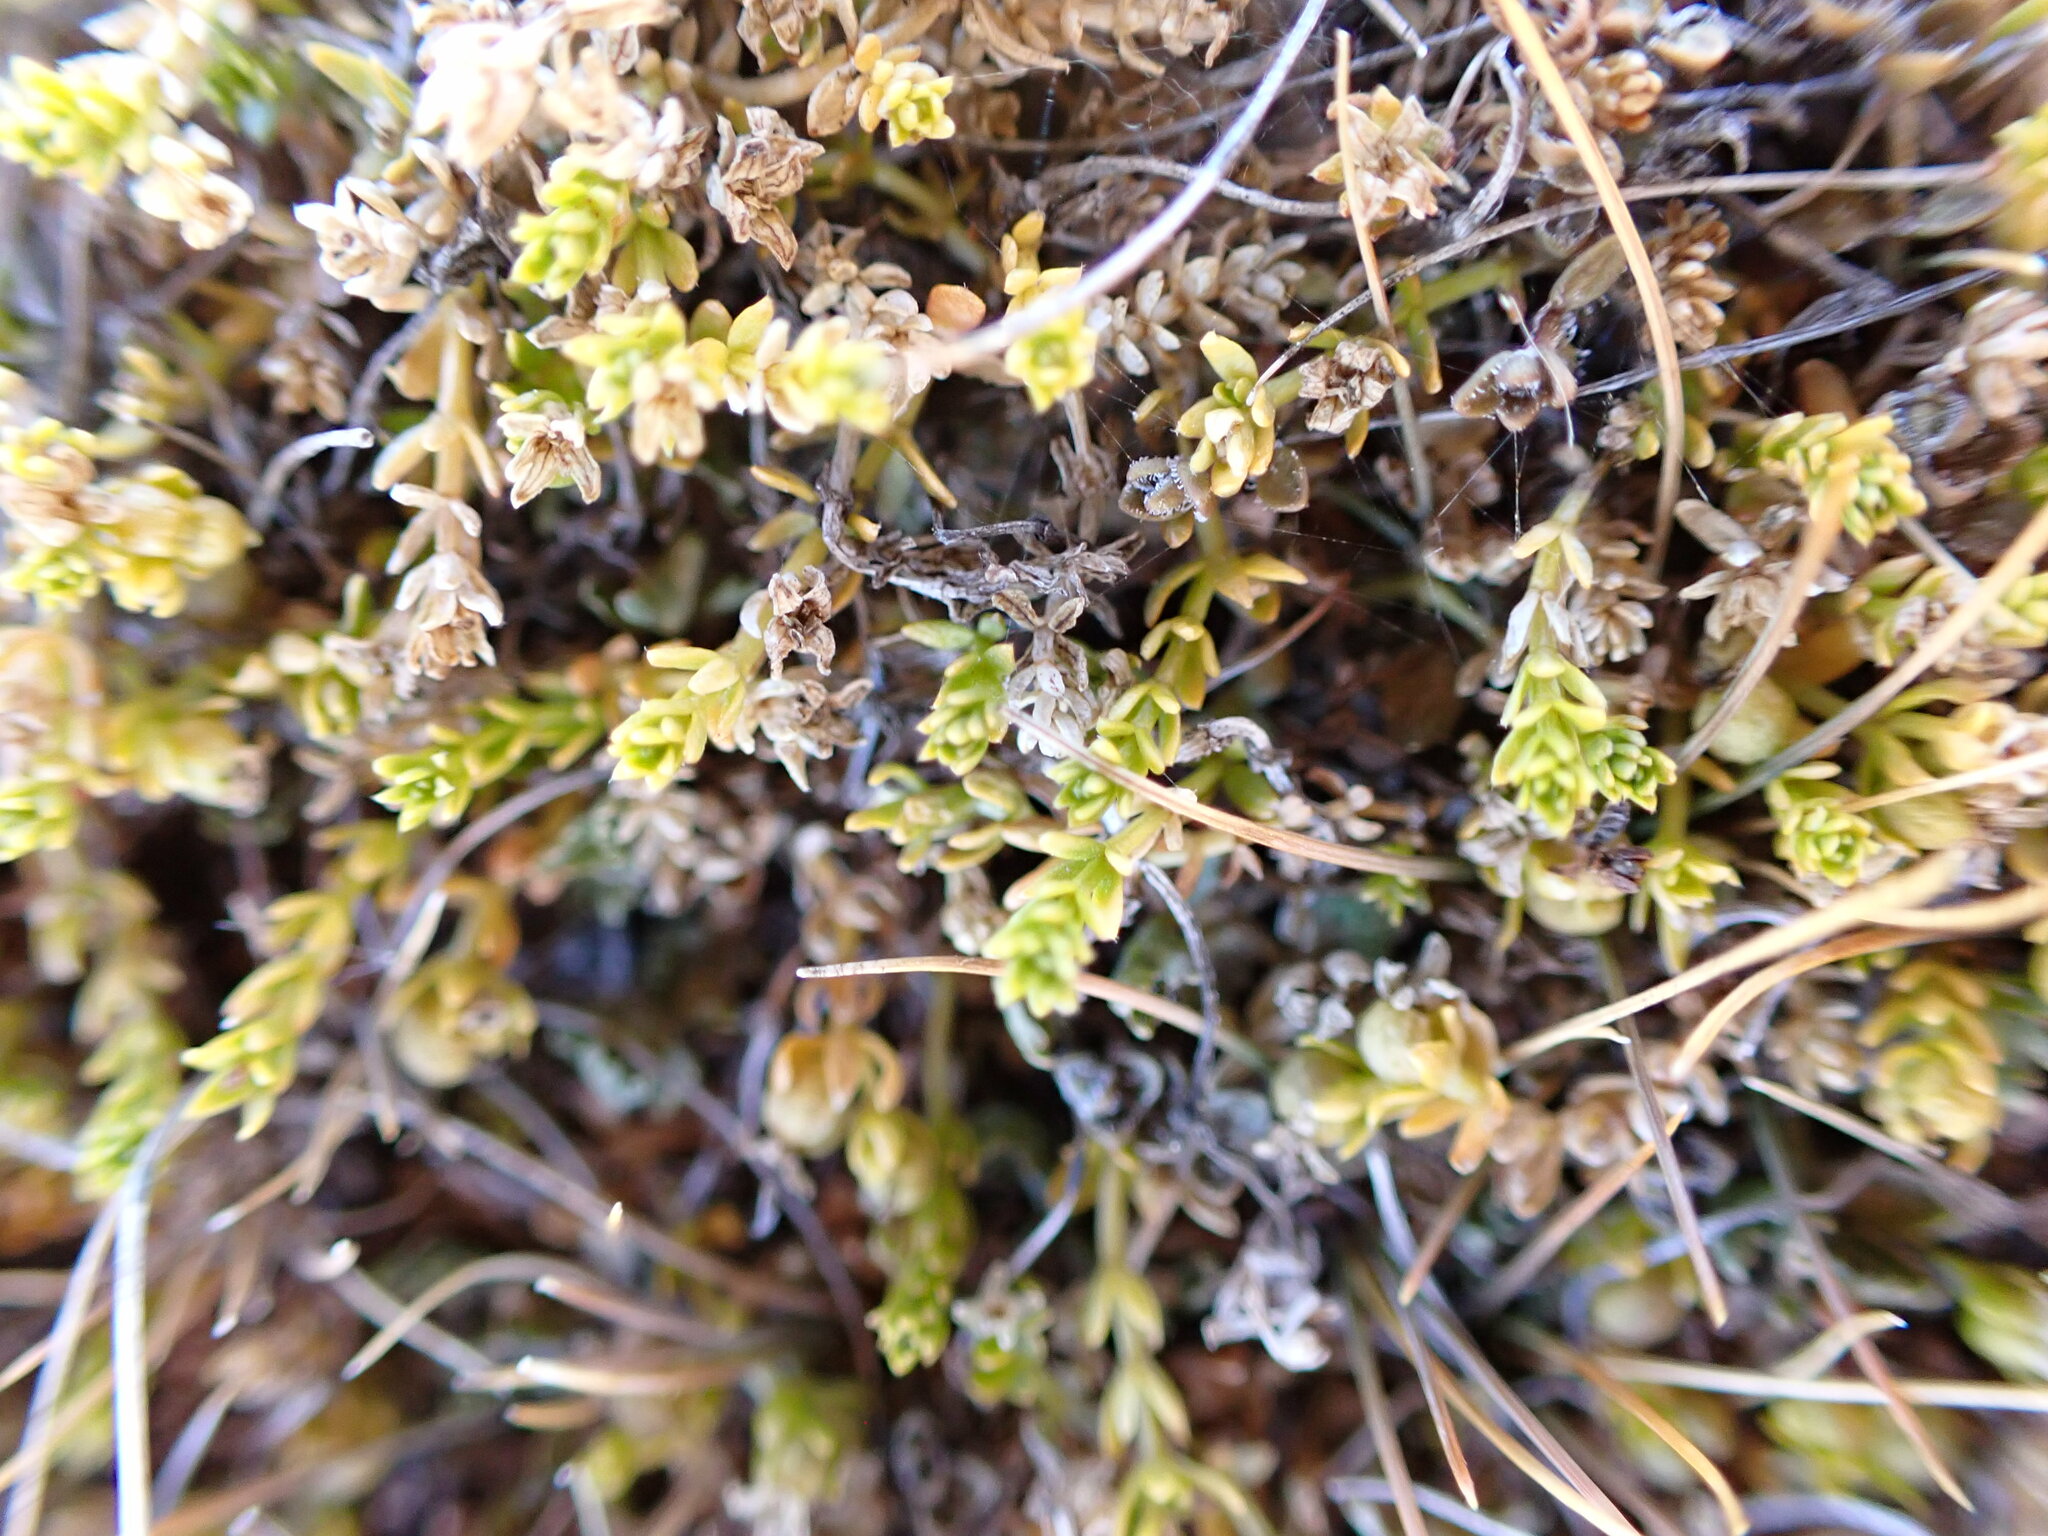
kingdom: Plantae
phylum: Tracheophyta
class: Magnoliopsida
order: Gentianales
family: Rubiaceae
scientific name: Rubiaceae
